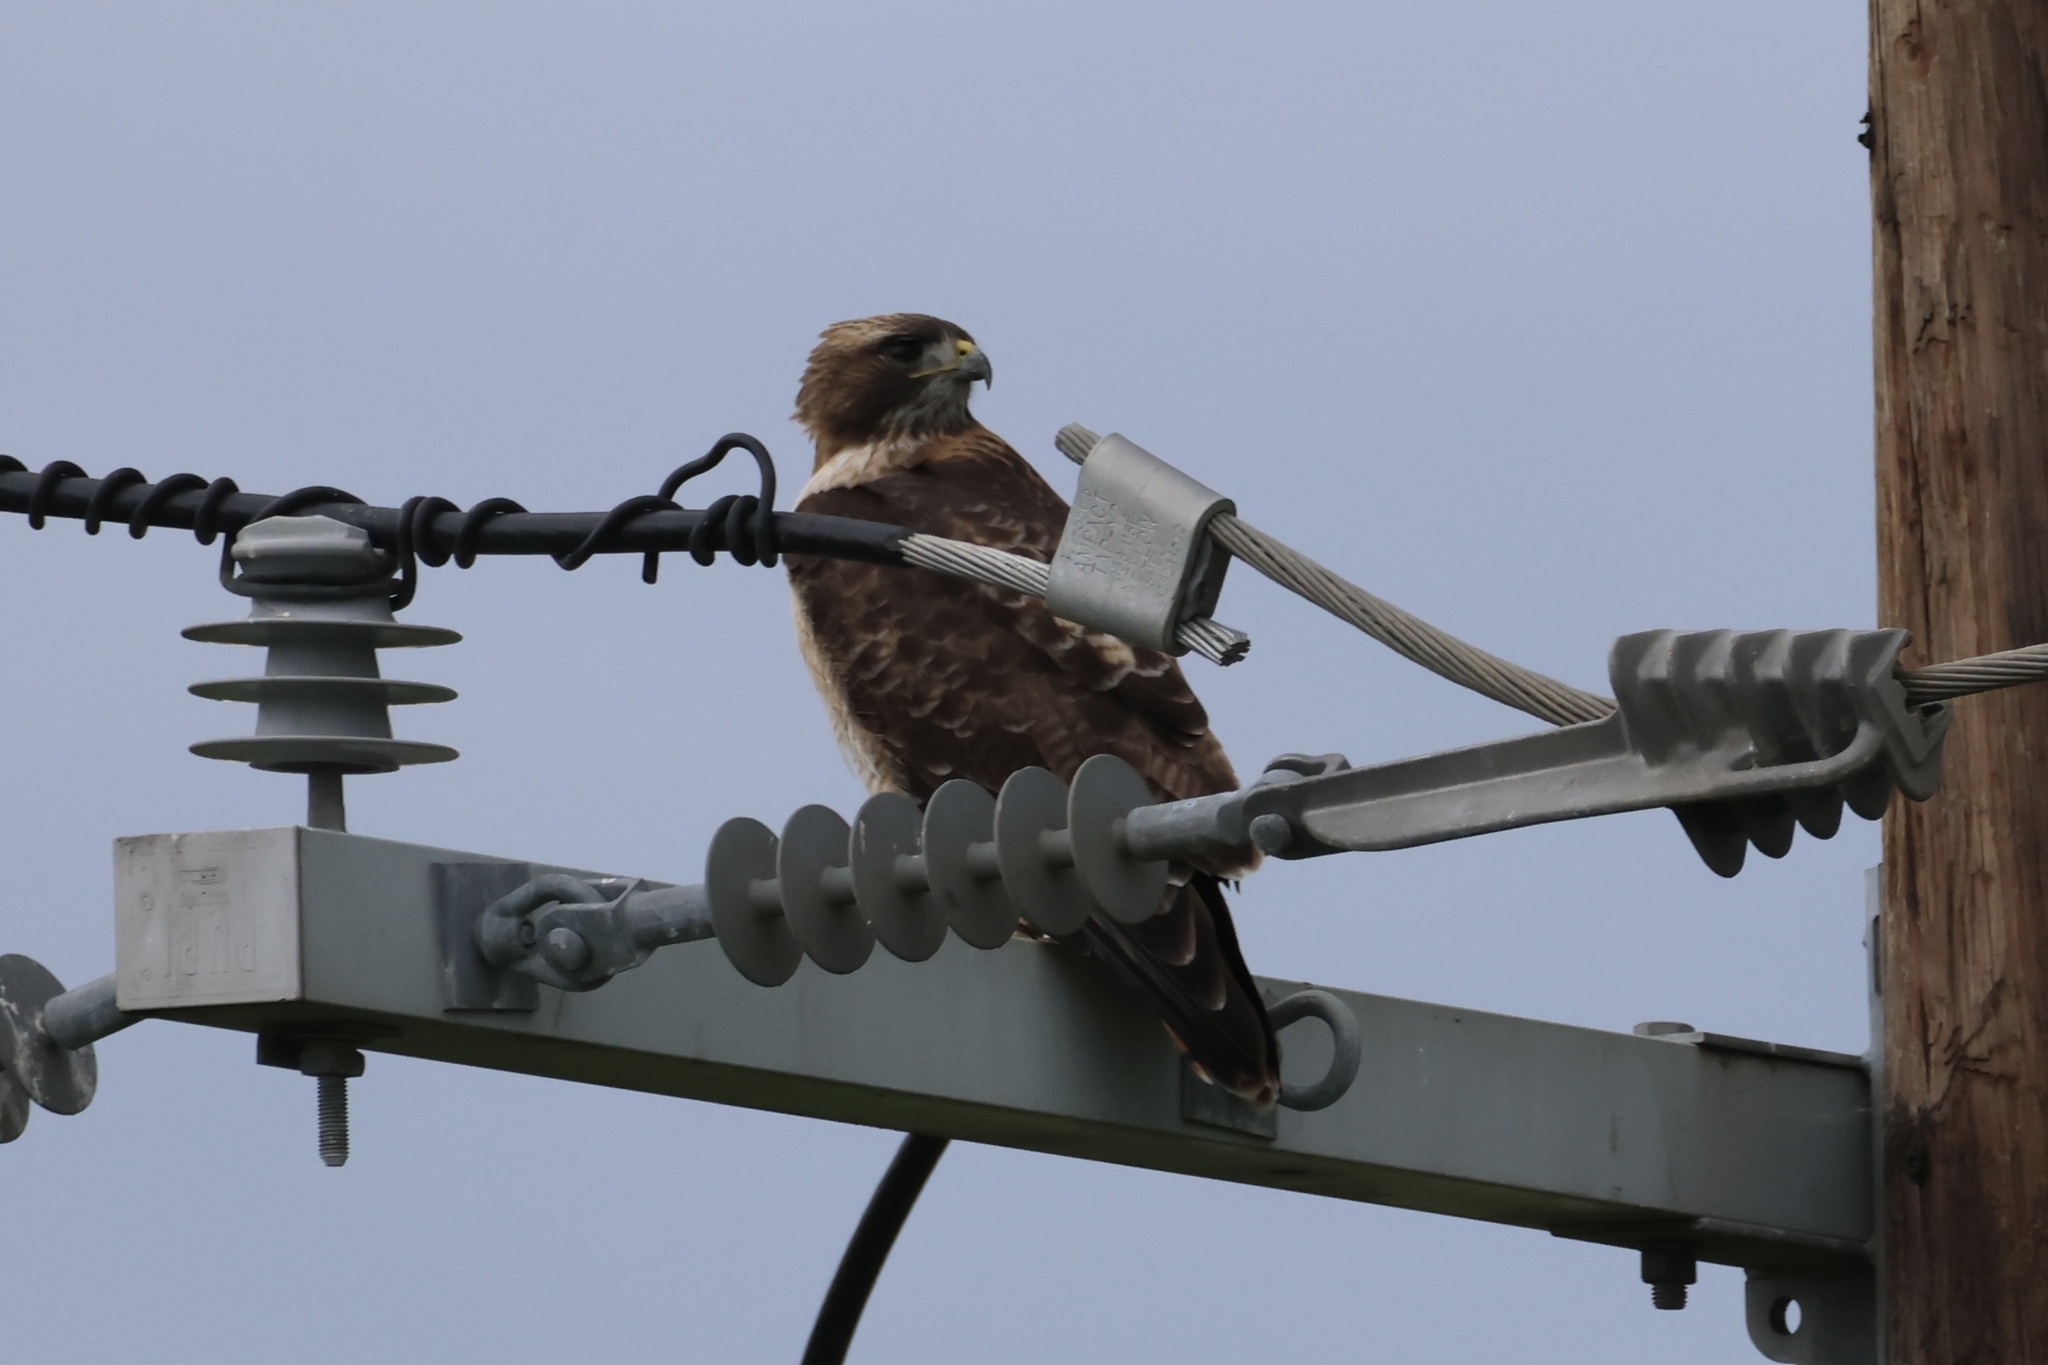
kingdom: Animalia
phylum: Chordata
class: Aves
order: Accipitriformes
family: Accipitridae
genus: Buteo
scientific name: Buteo jamaicensis
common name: Red-tailed hawk
